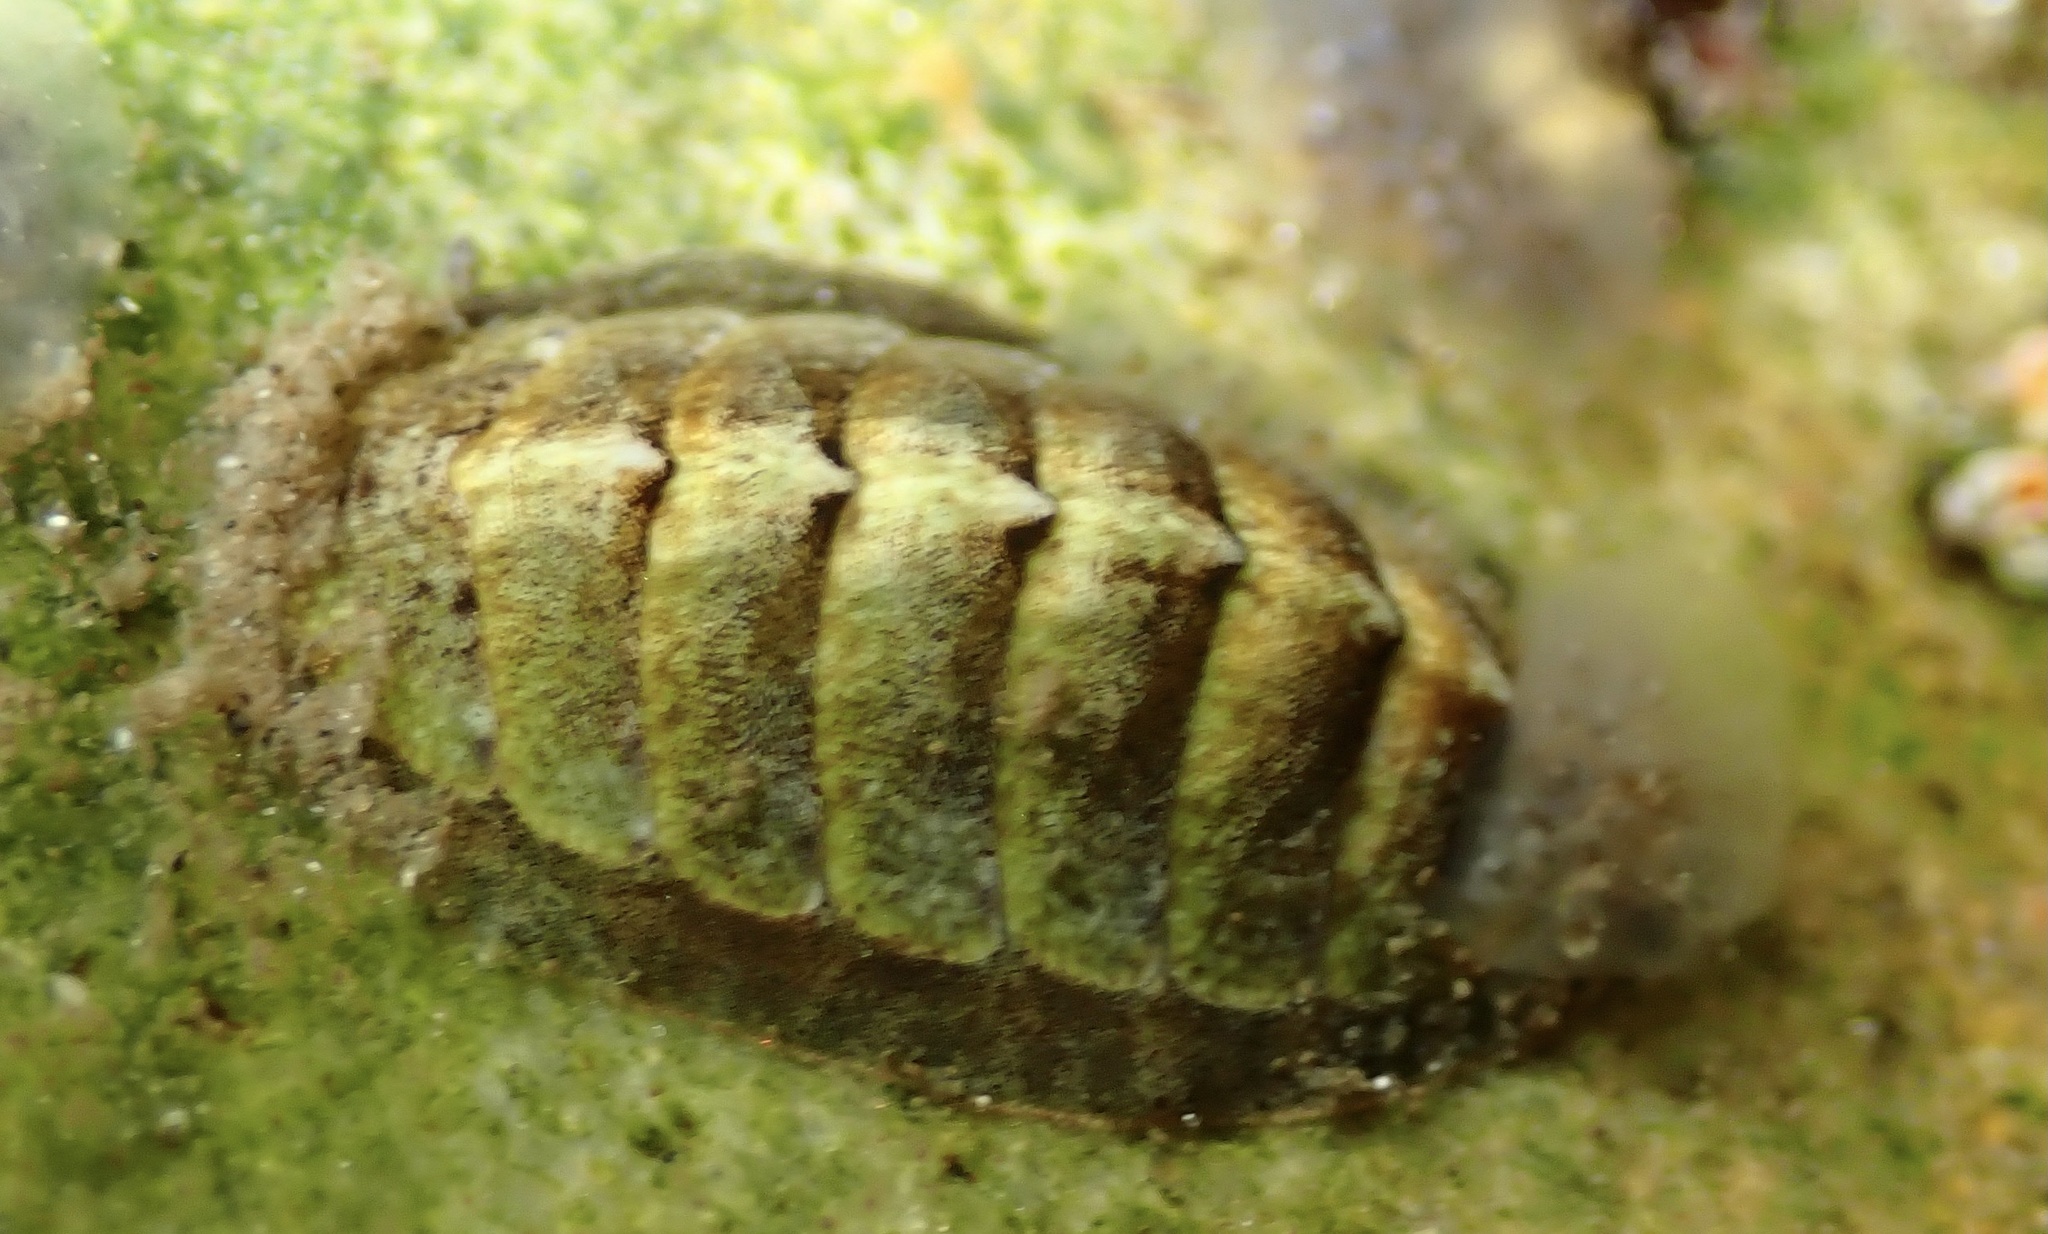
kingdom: Animalia
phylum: Mollusca
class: Polyplacophora
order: Chitonida
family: Tonicellidae
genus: Lepidochitona
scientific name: Lepidochitona cinerea
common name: Cinereous chiton
